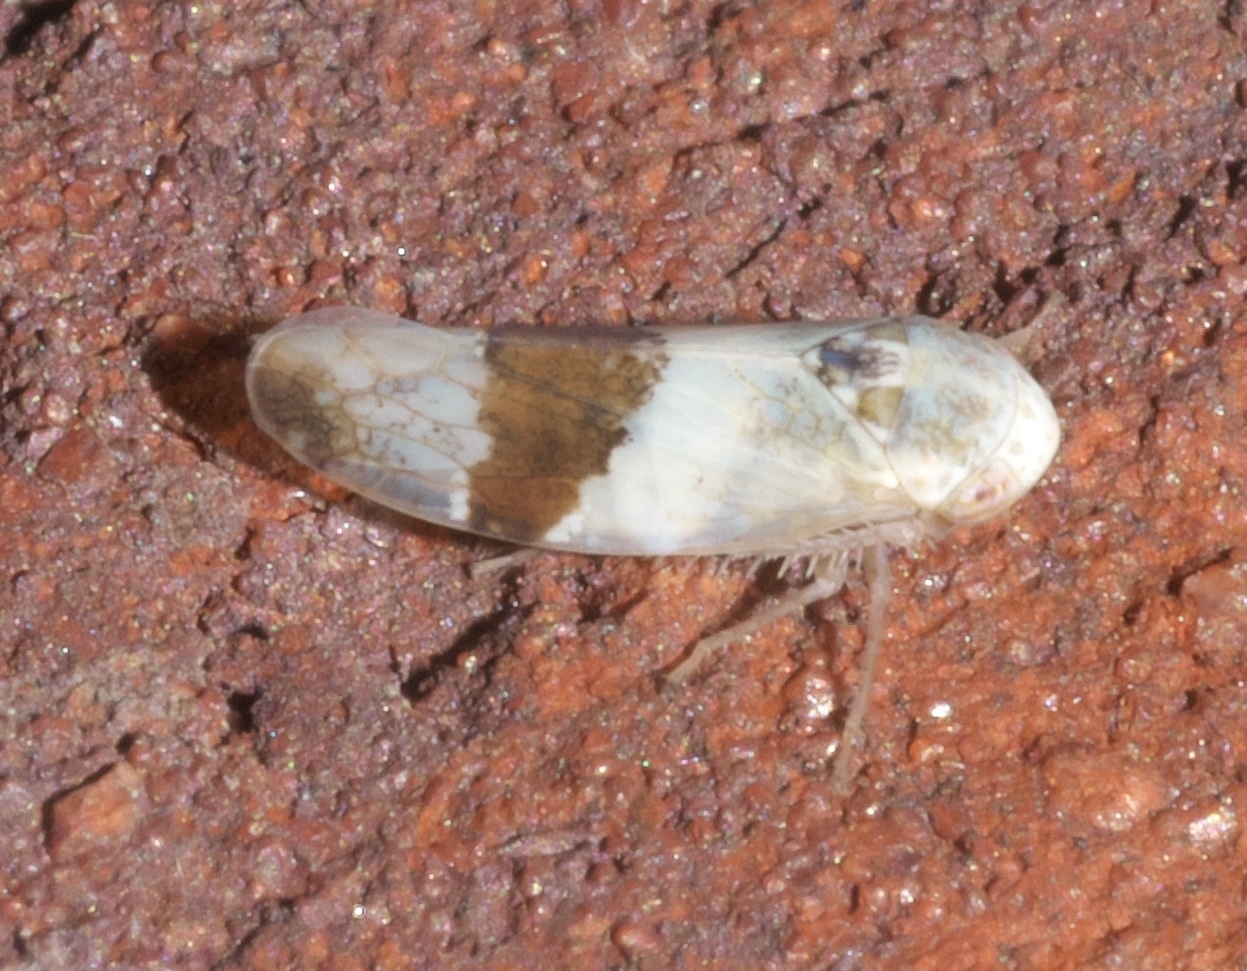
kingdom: Animalia
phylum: Arthropoda
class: Insecta
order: Hemiptera
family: Cicadellidae
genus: Norvellina
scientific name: Norvellina seminuda
